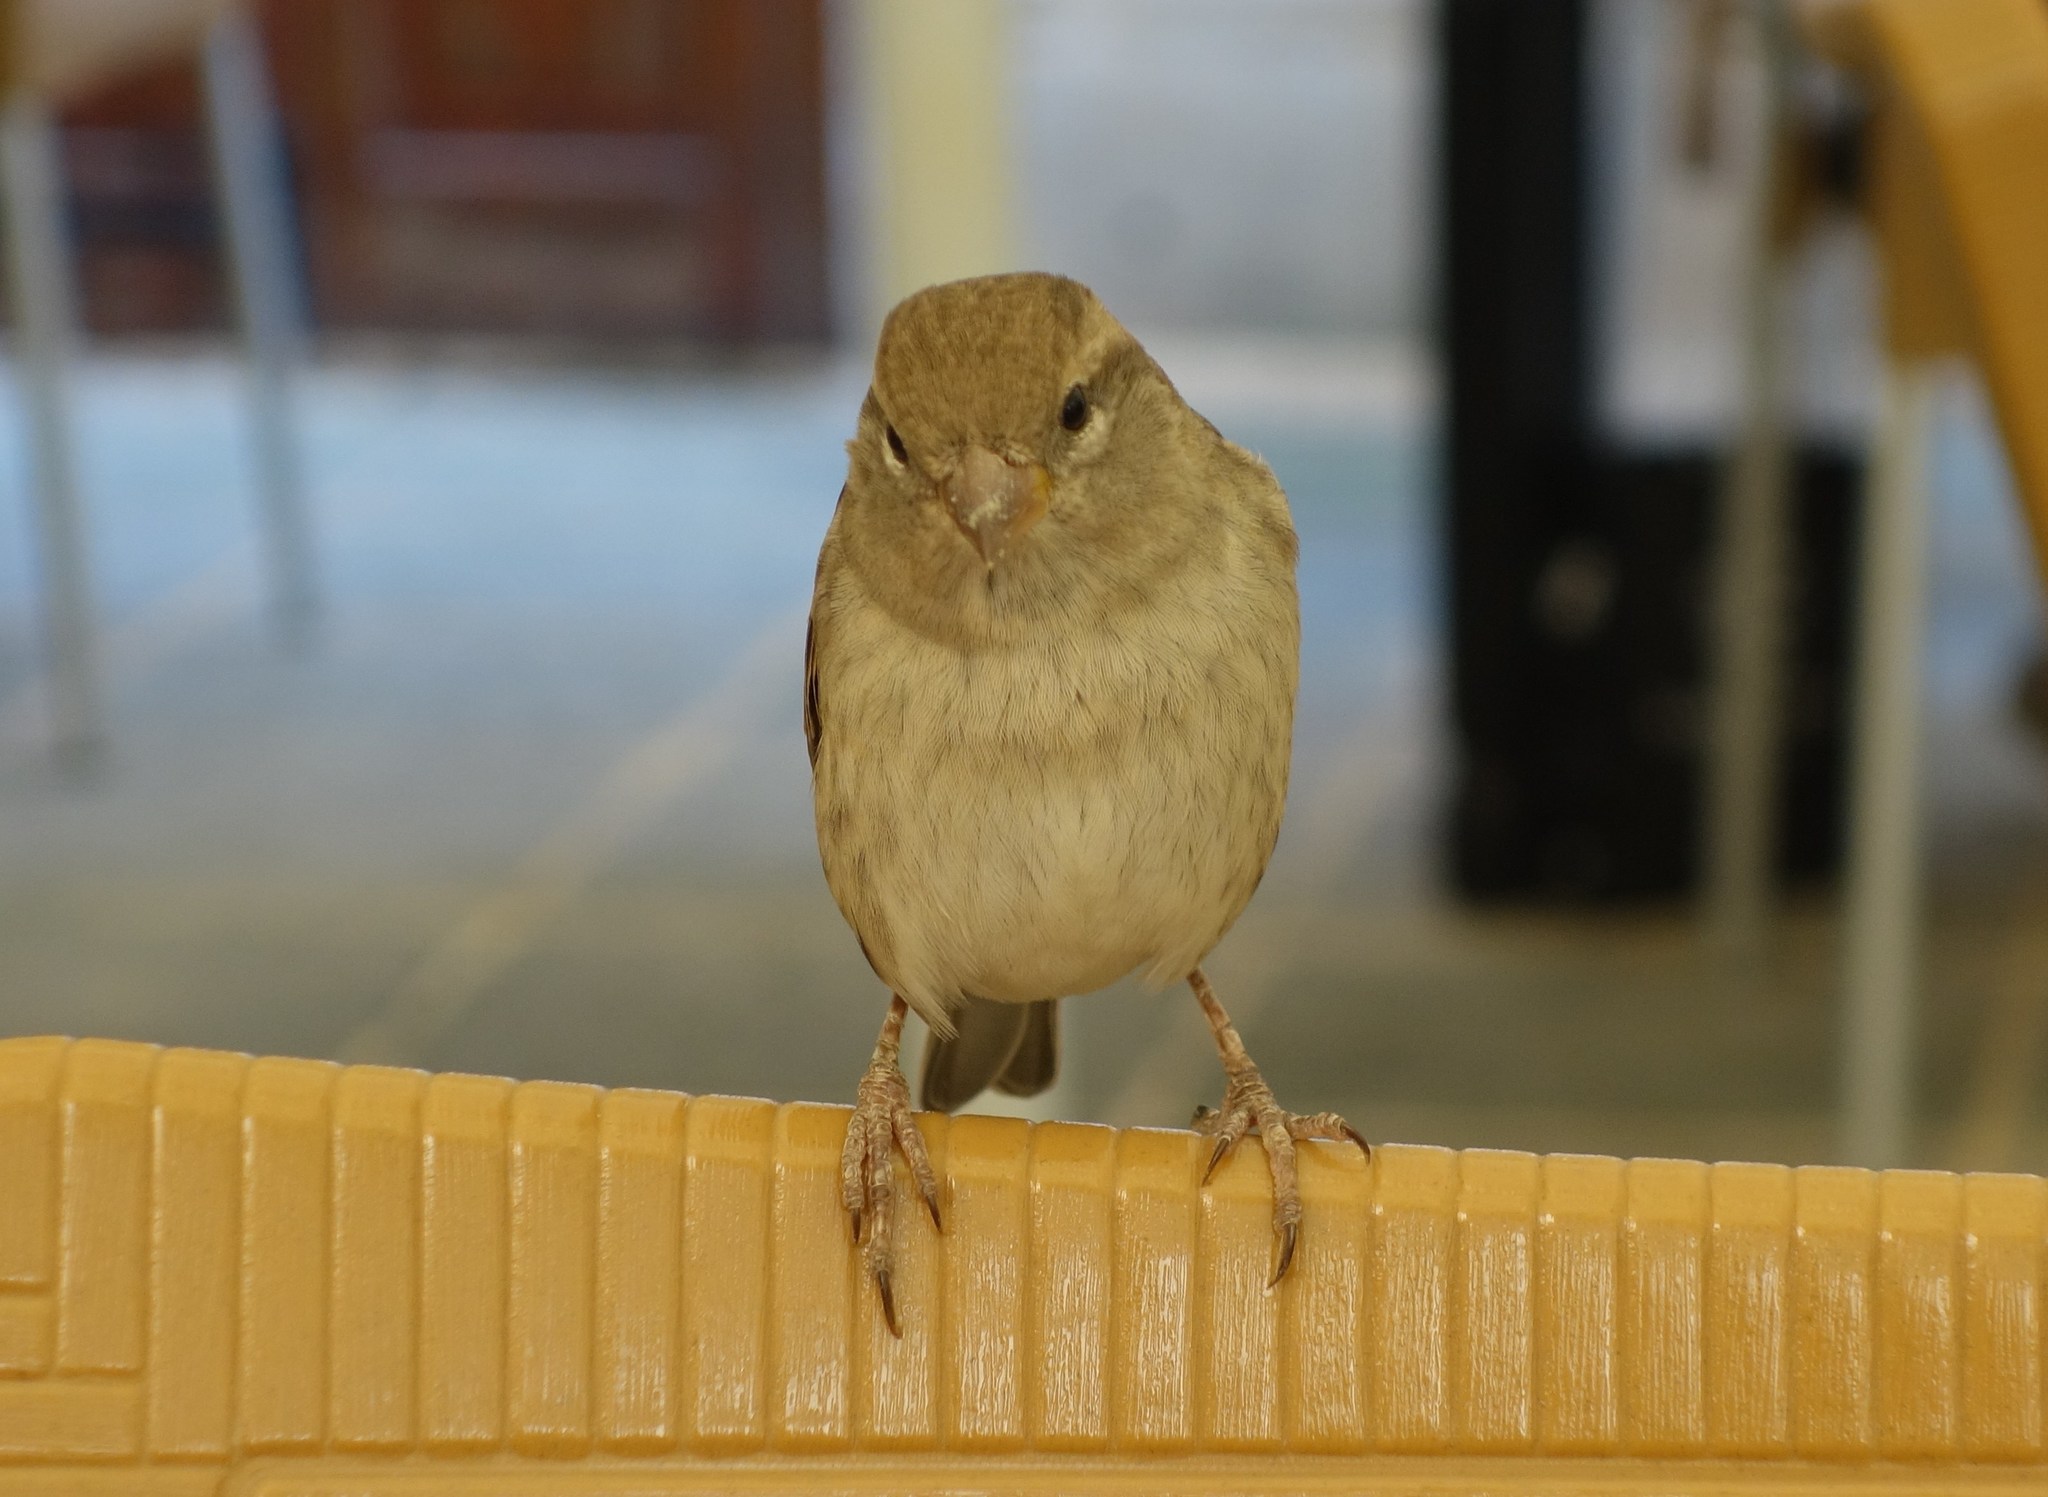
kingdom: Animalia
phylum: Chordata
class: Aves
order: Passeriformes
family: Passeridae
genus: Passer
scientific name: Passer hispaniolensis
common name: Spanish sparrow
